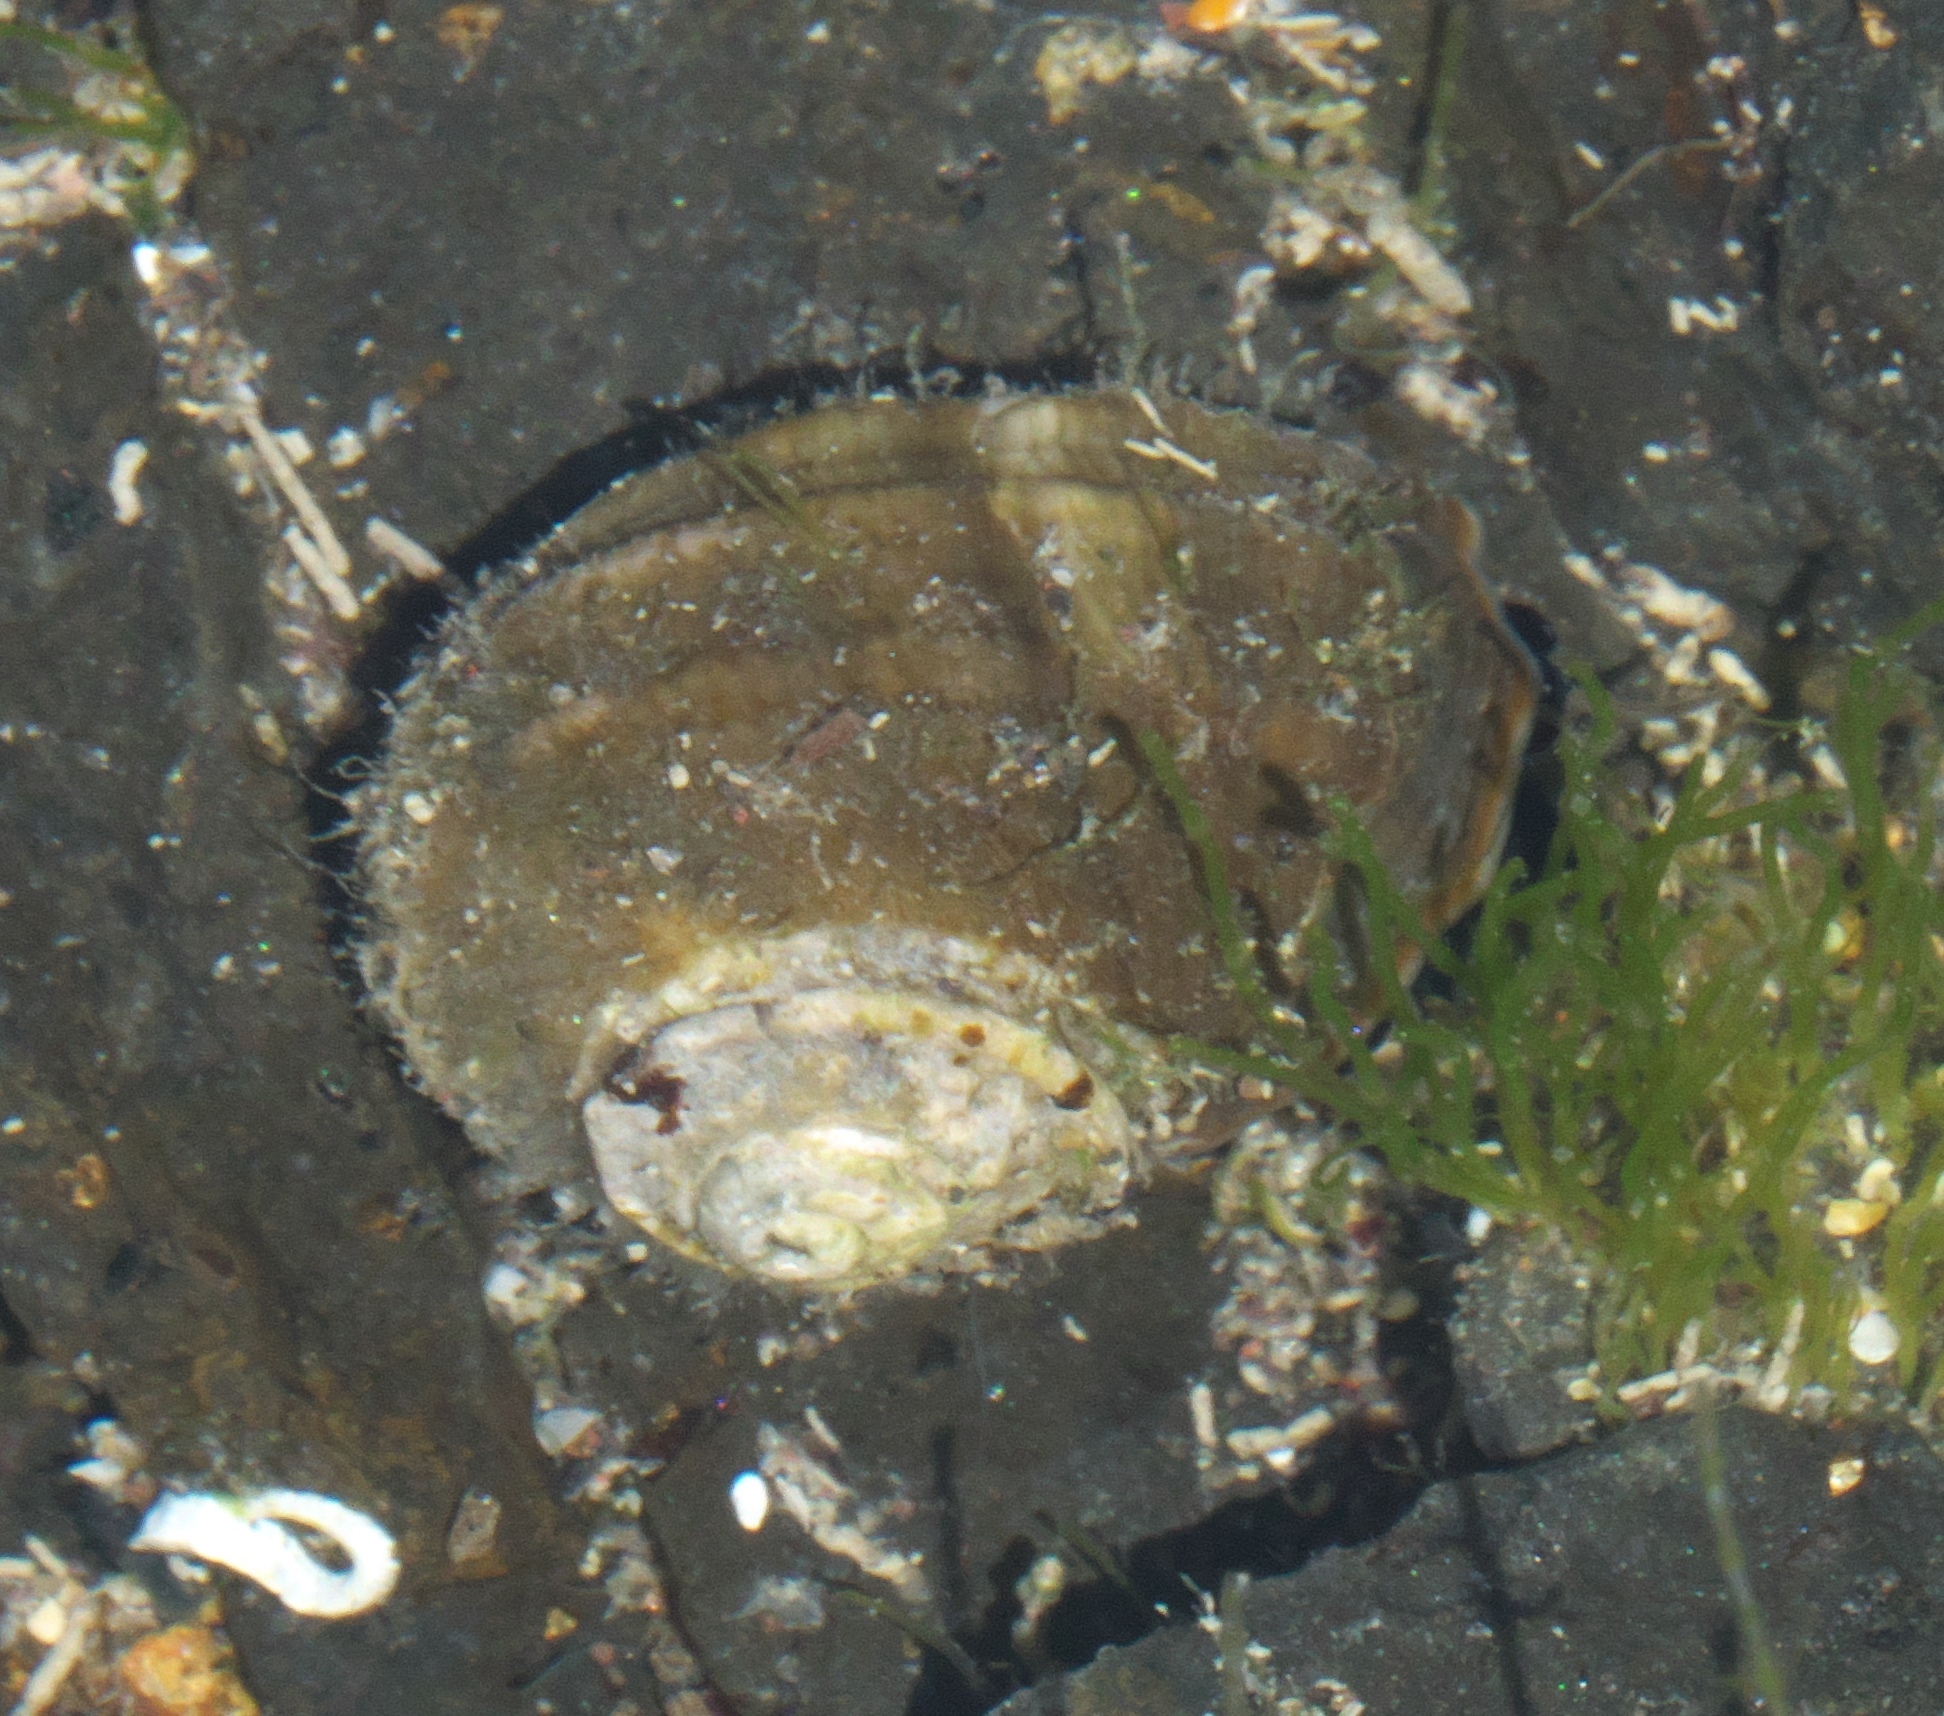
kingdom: Animalia
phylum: Mollusca
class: Gastropoda
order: Trochida
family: Turbinidae
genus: Lunella
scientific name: Lunella smaragda
